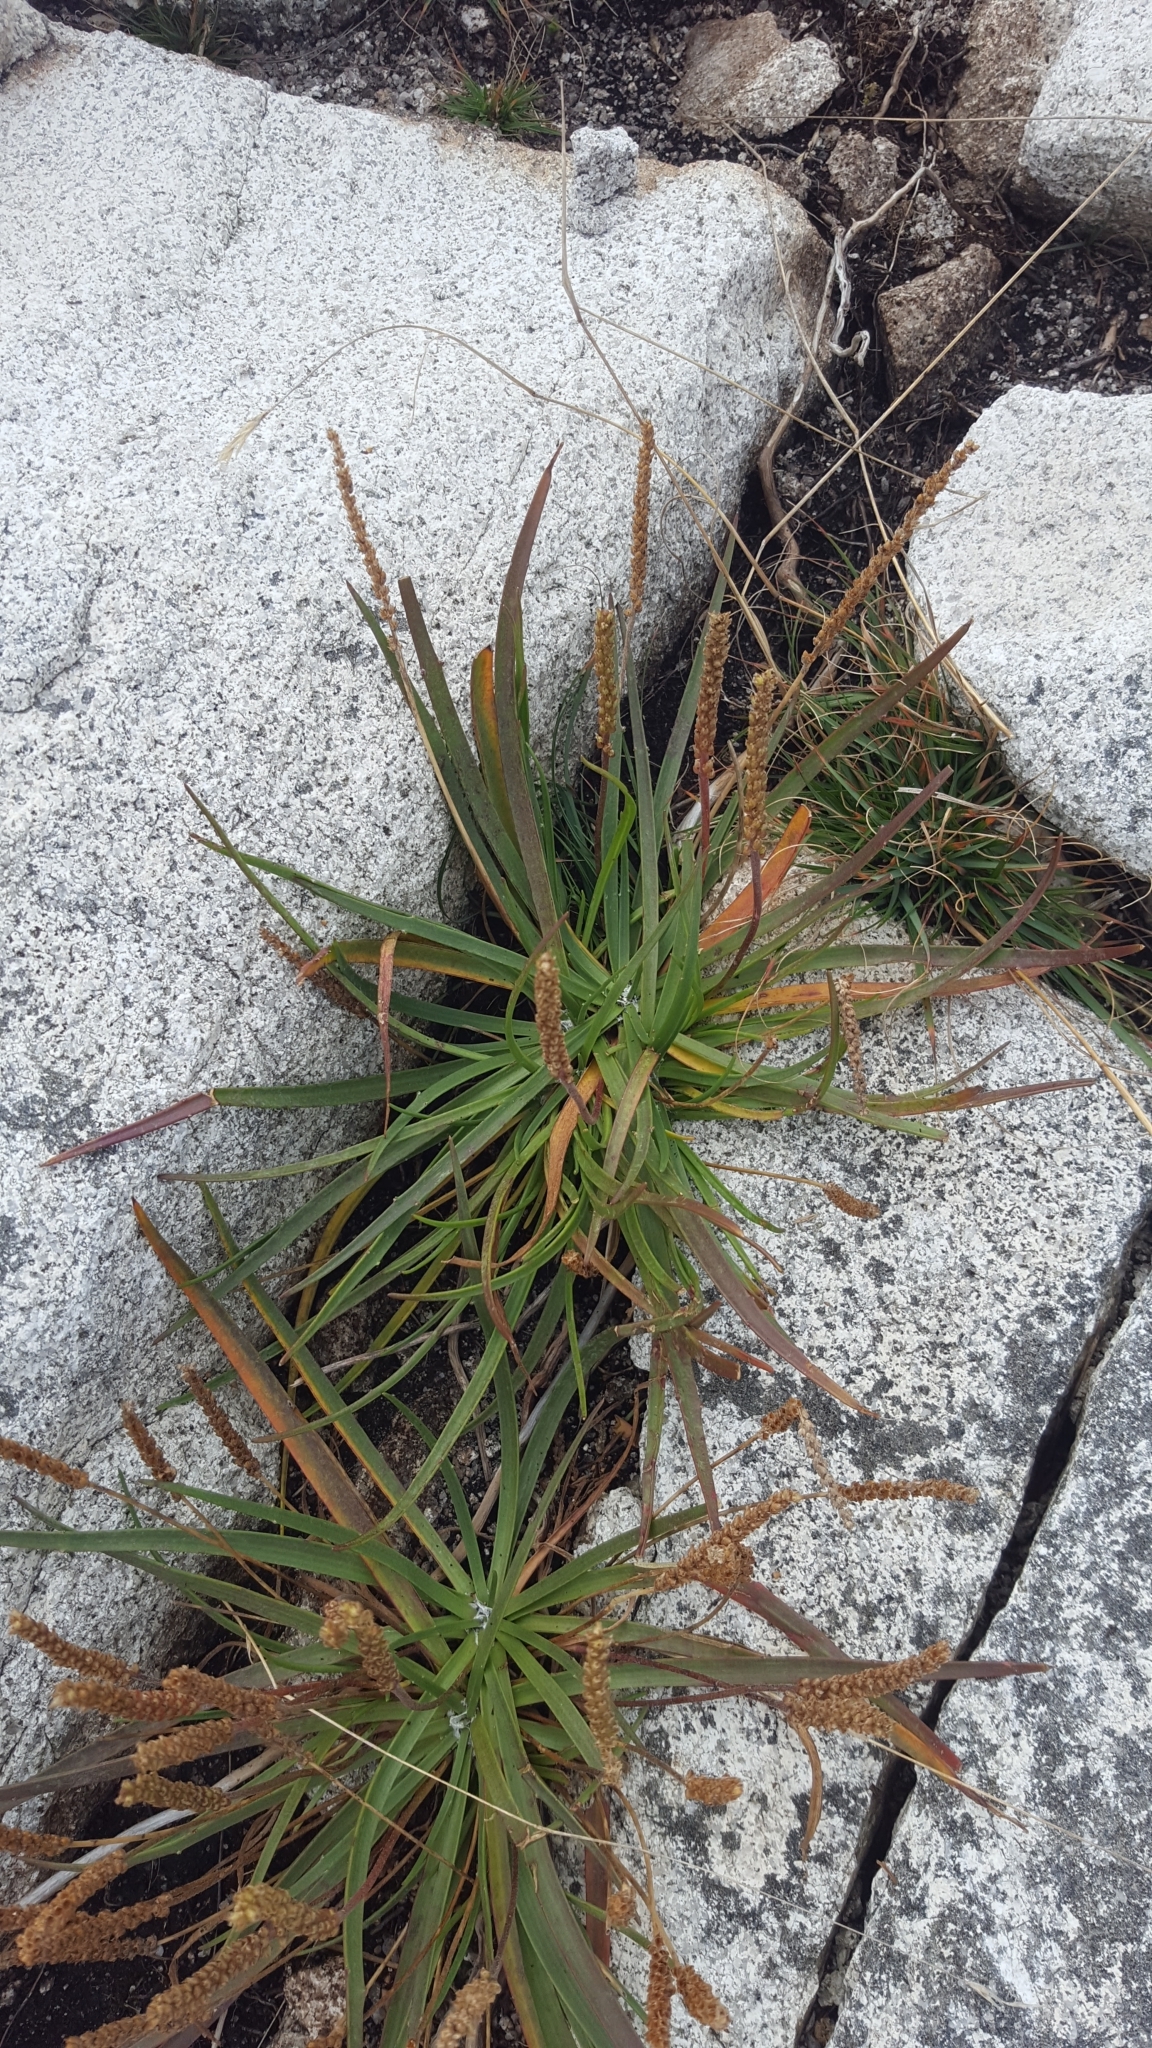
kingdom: Plantae
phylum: Tracheophyta
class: Magnoliopsida
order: Lamiales
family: Plantaginaceae
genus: Plantago
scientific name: Plantago maritima
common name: Sea plantain
